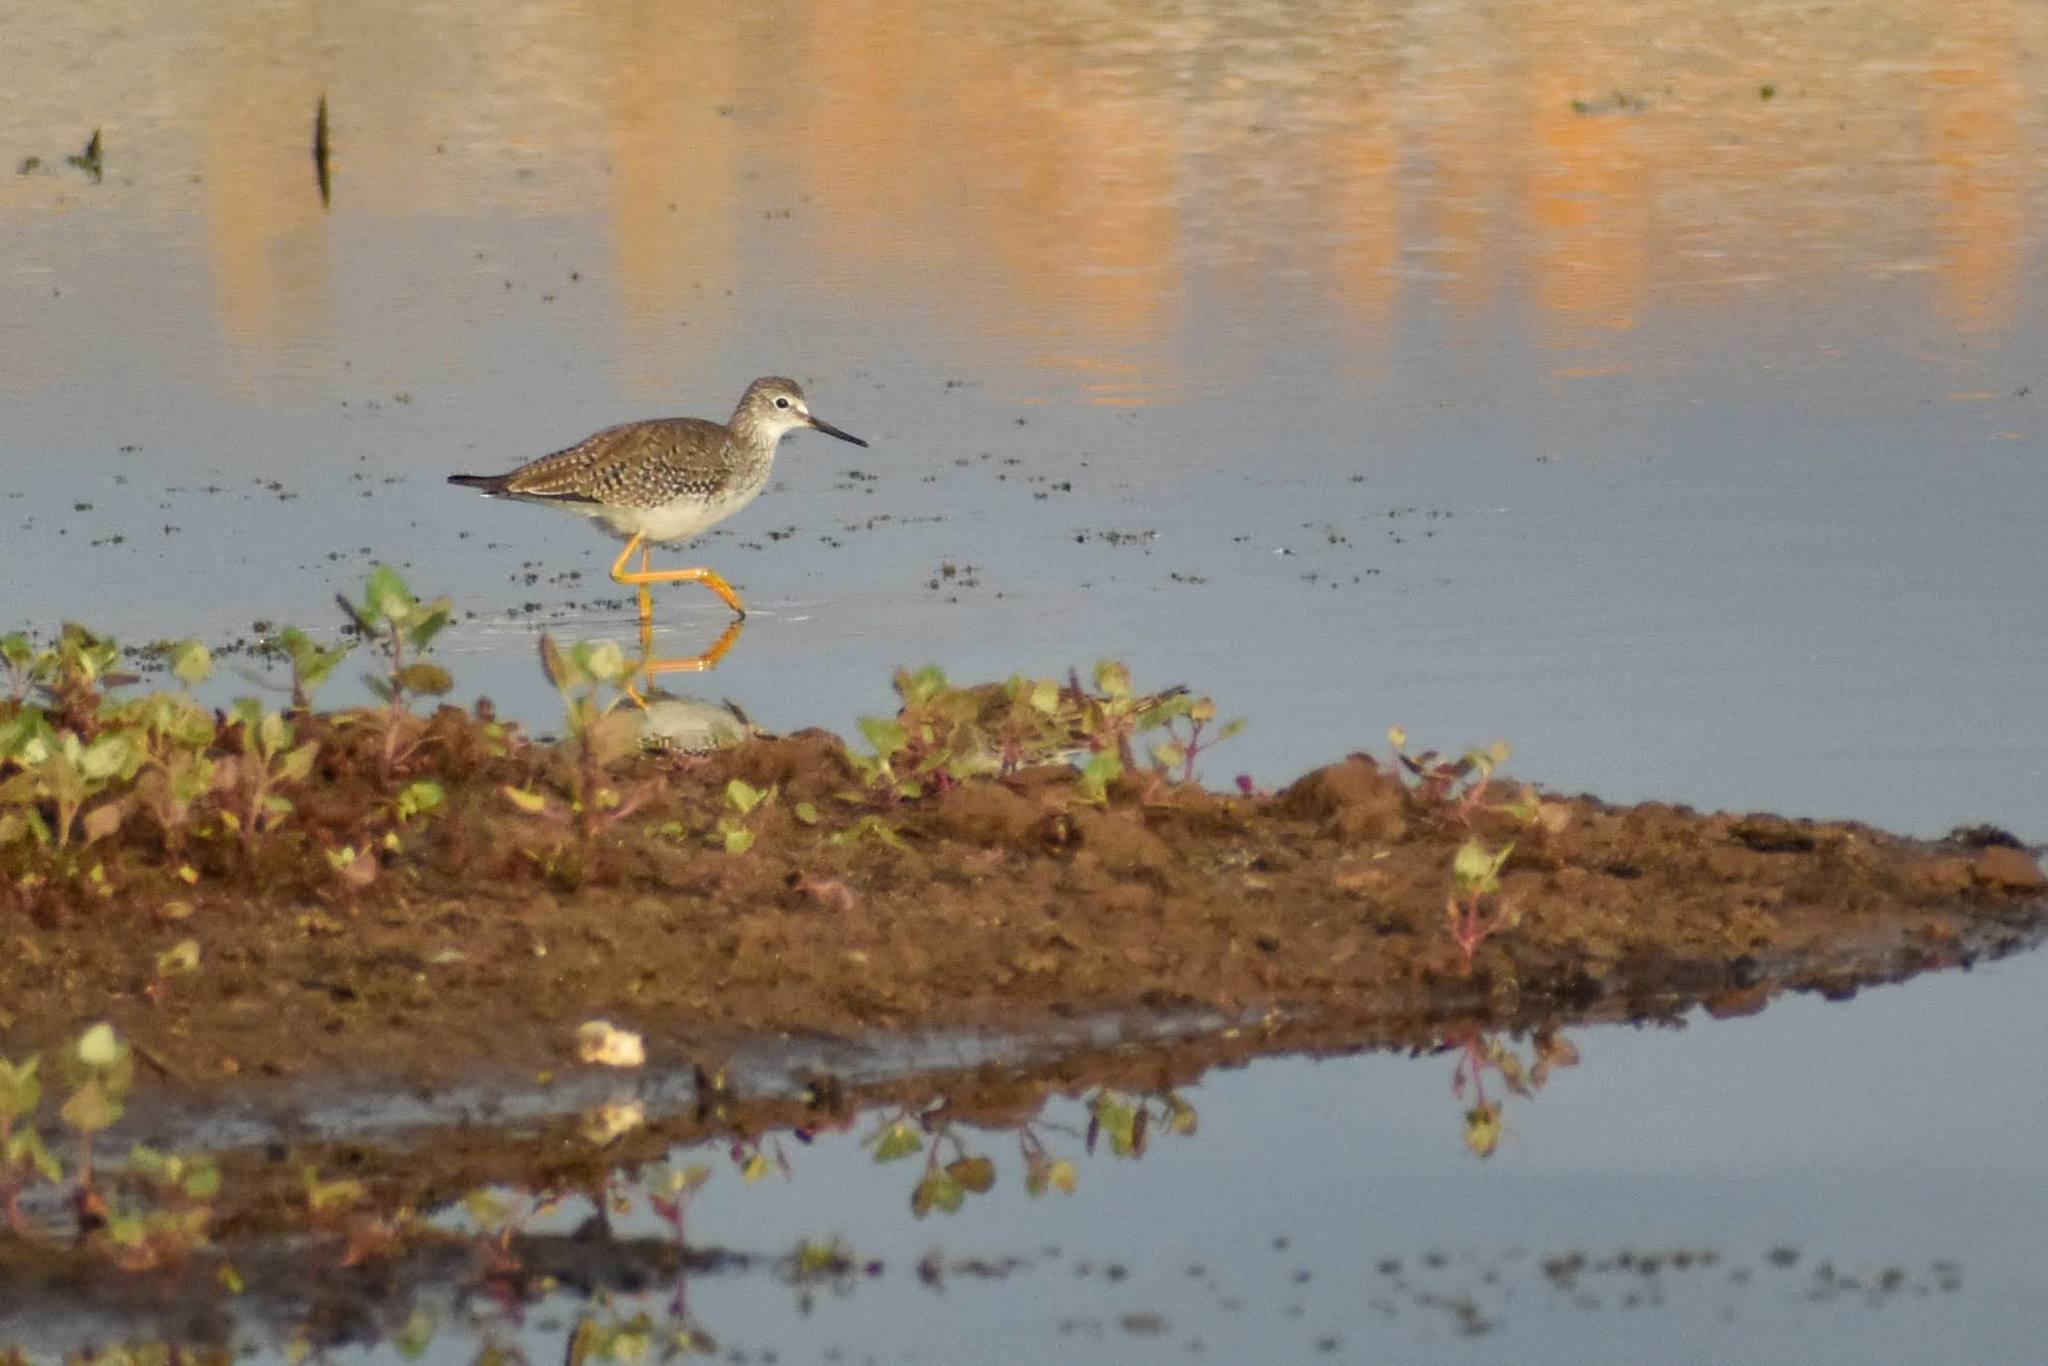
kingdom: Animalia
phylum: Chordata
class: Aves
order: Charadriiformes
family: Scolopacidae
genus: Tringa
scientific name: Tringa flavipes
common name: Lesser yellowlegs
